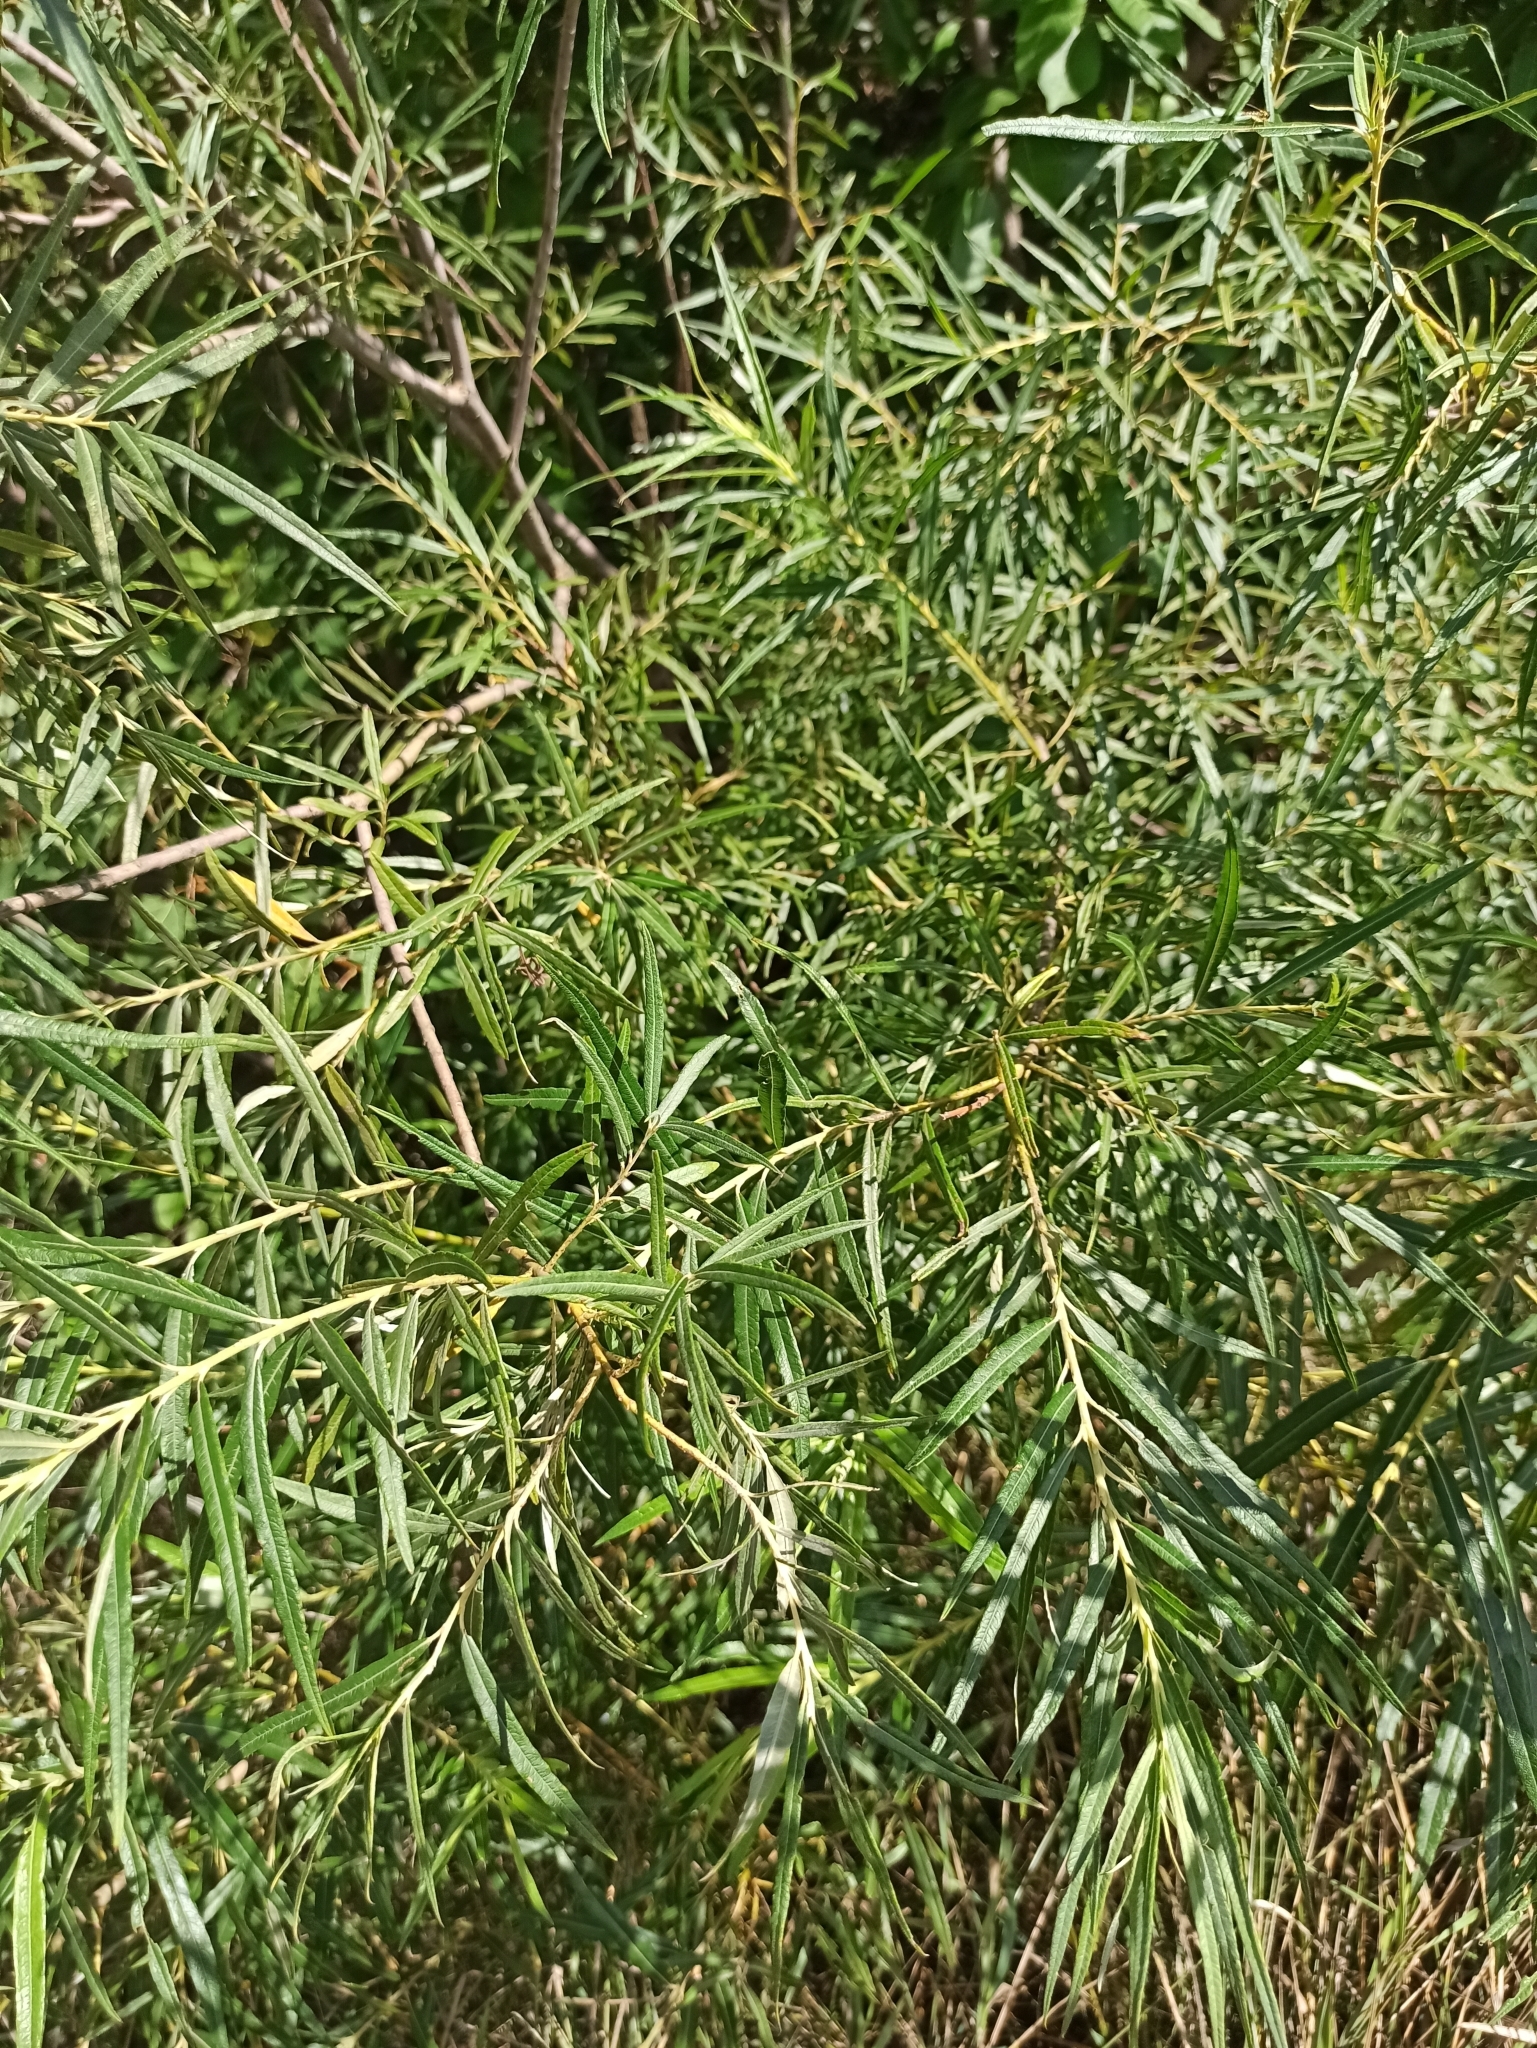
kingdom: Plantae
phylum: Tracheophyta
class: Magnoliopsida
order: Malpighiales
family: Salicaceae
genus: Salix
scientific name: Salix viminalis
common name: Osier
